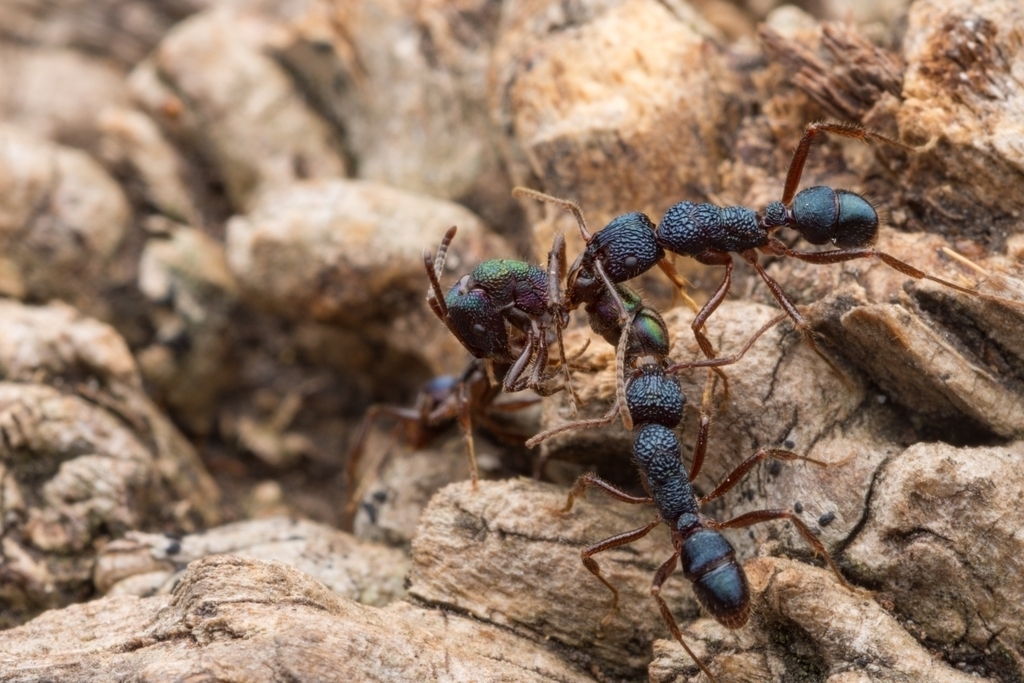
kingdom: Animalia
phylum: Arthropoda
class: Insecta
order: Hymenoptera
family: Formicidae
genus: Rhytidoponera
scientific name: Rhytidoponera metallica
